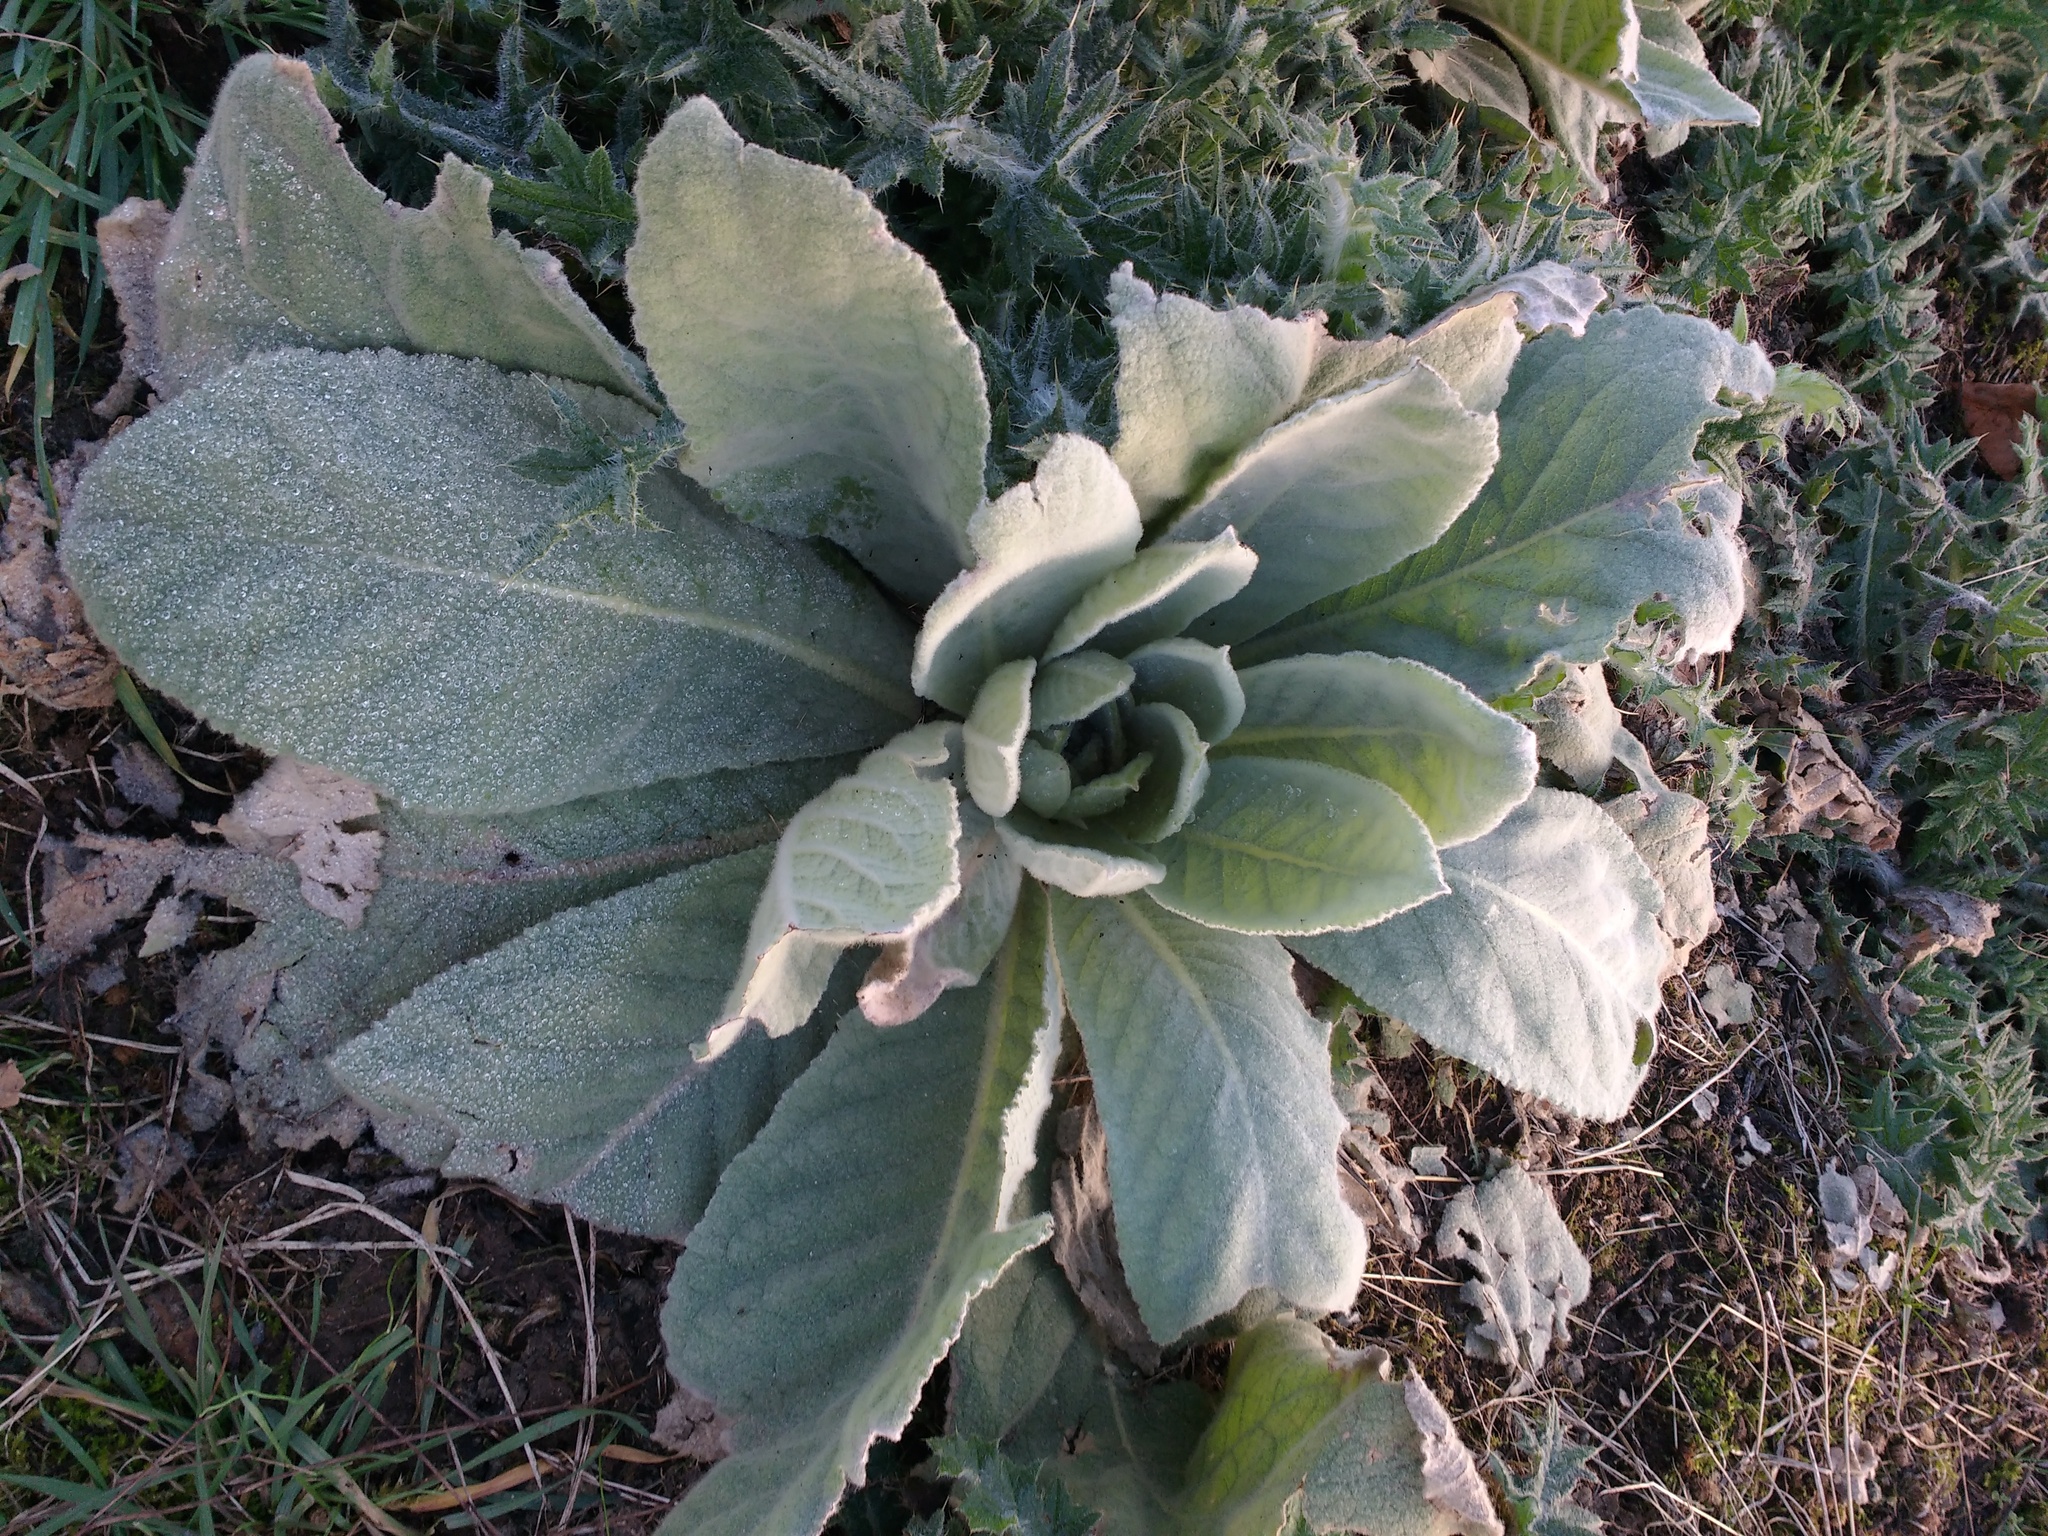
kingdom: Plantae
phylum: Tracheophyta
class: Magnoliopsida
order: Lamiales
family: Scrophulariaceae
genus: Verbascum
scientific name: Verbascum thapsus
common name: Common mullein
